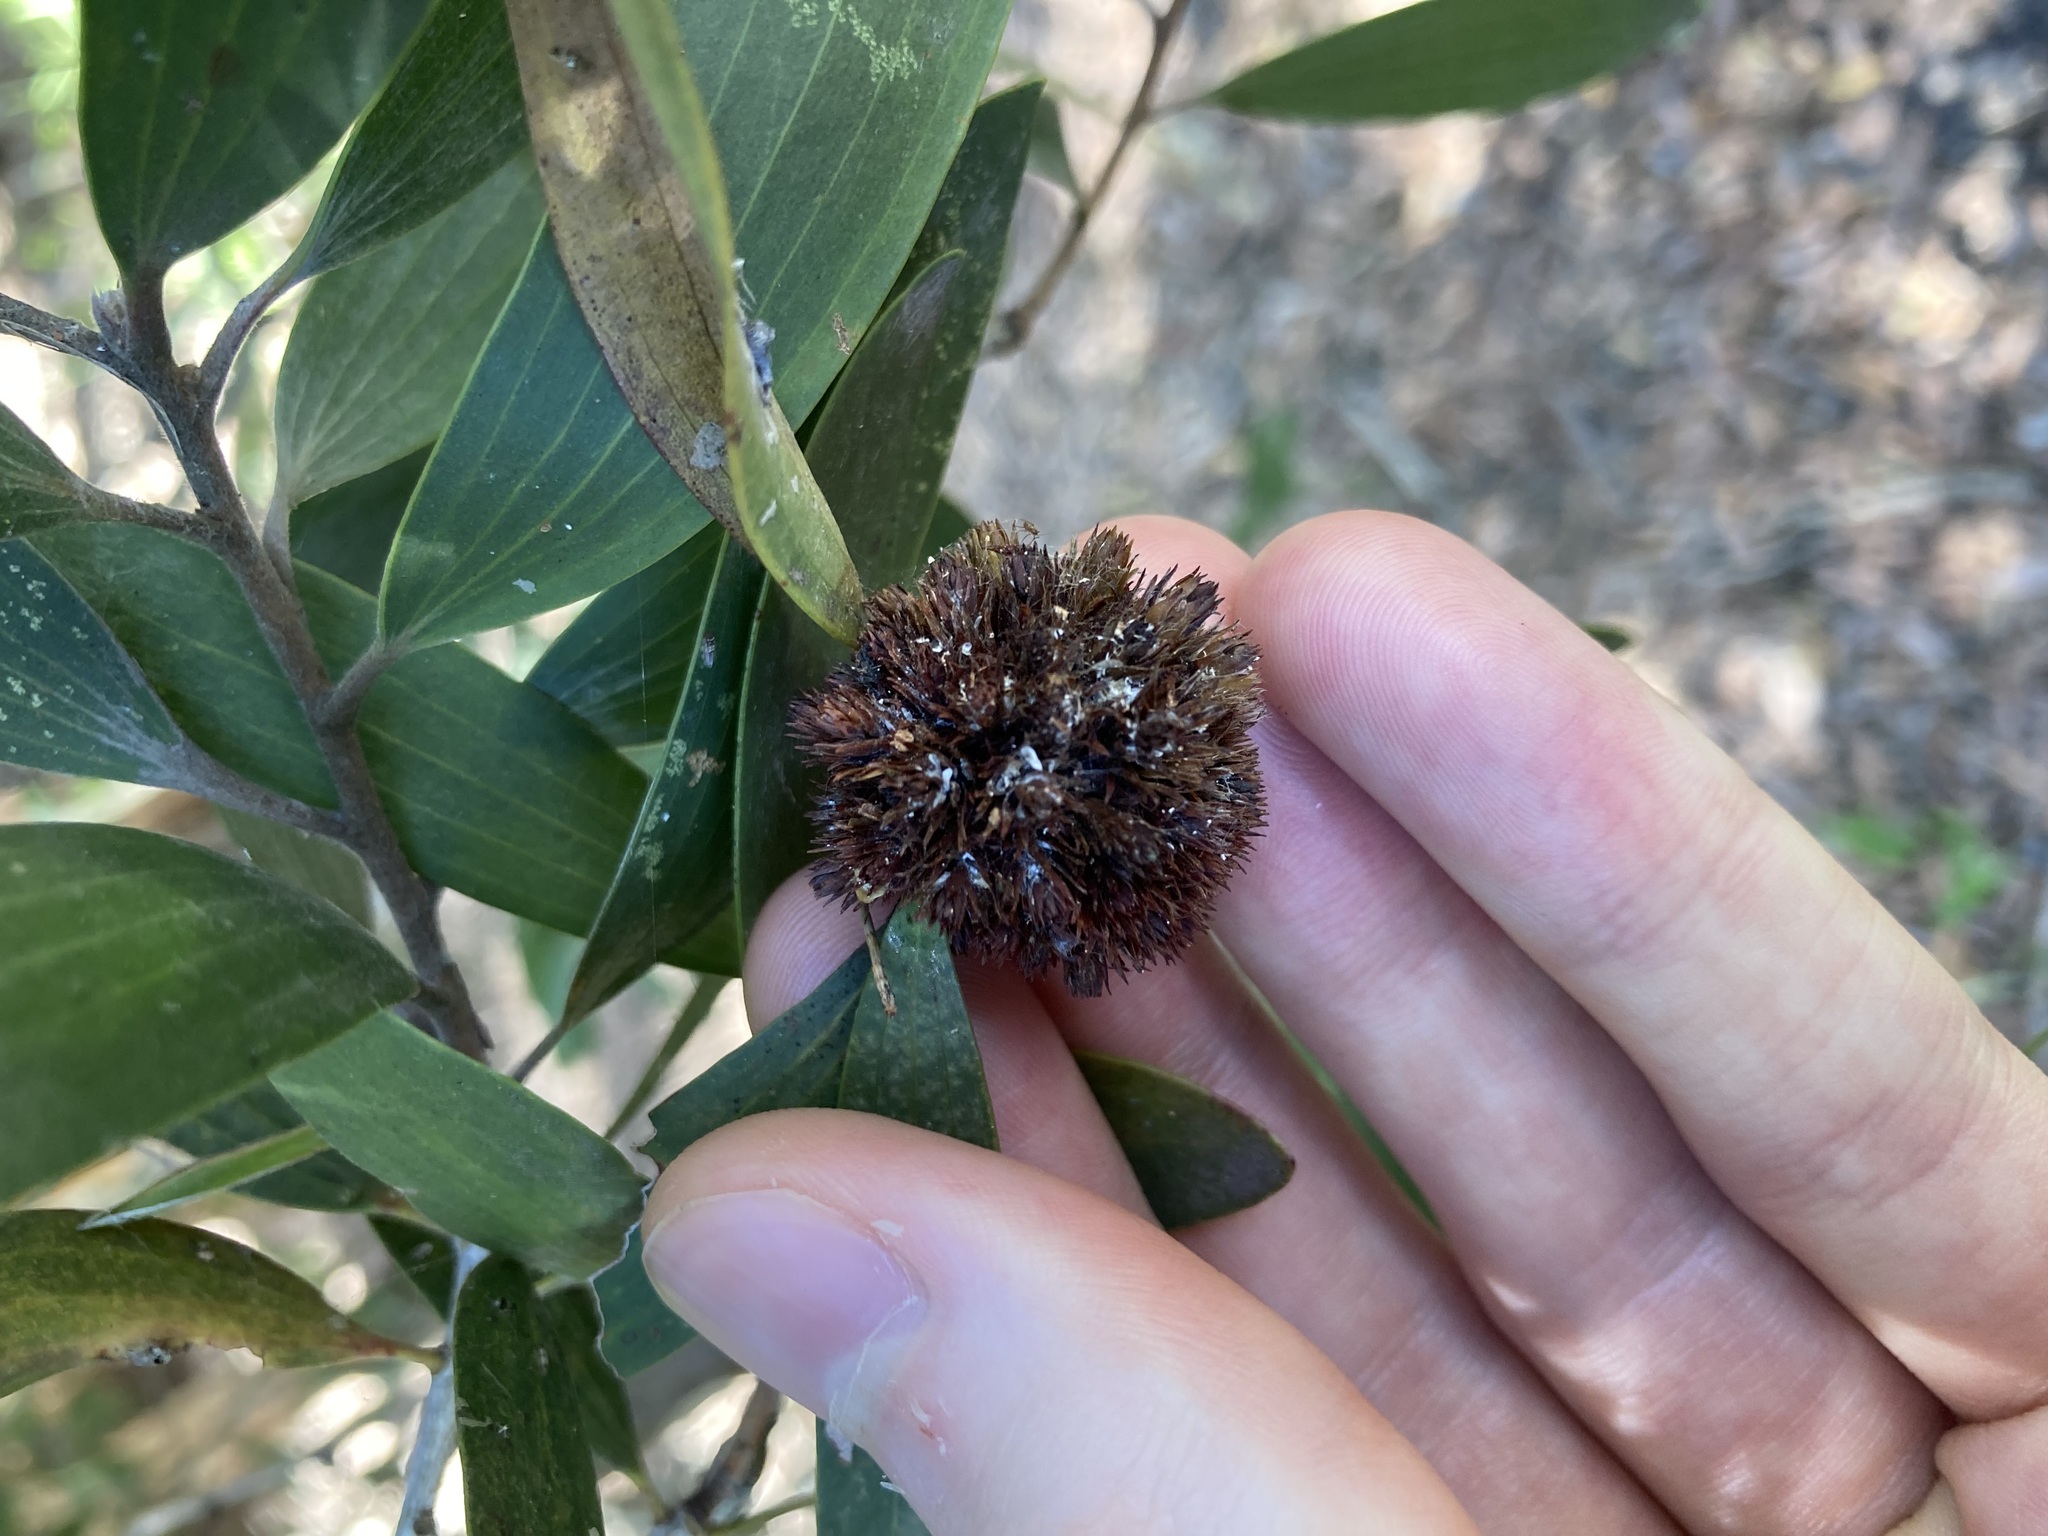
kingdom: Animalia
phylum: Arthropoda
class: Insecta
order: Hemiptera
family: Beesoniidae
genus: Beesonia
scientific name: Beesonia ferrugineus
